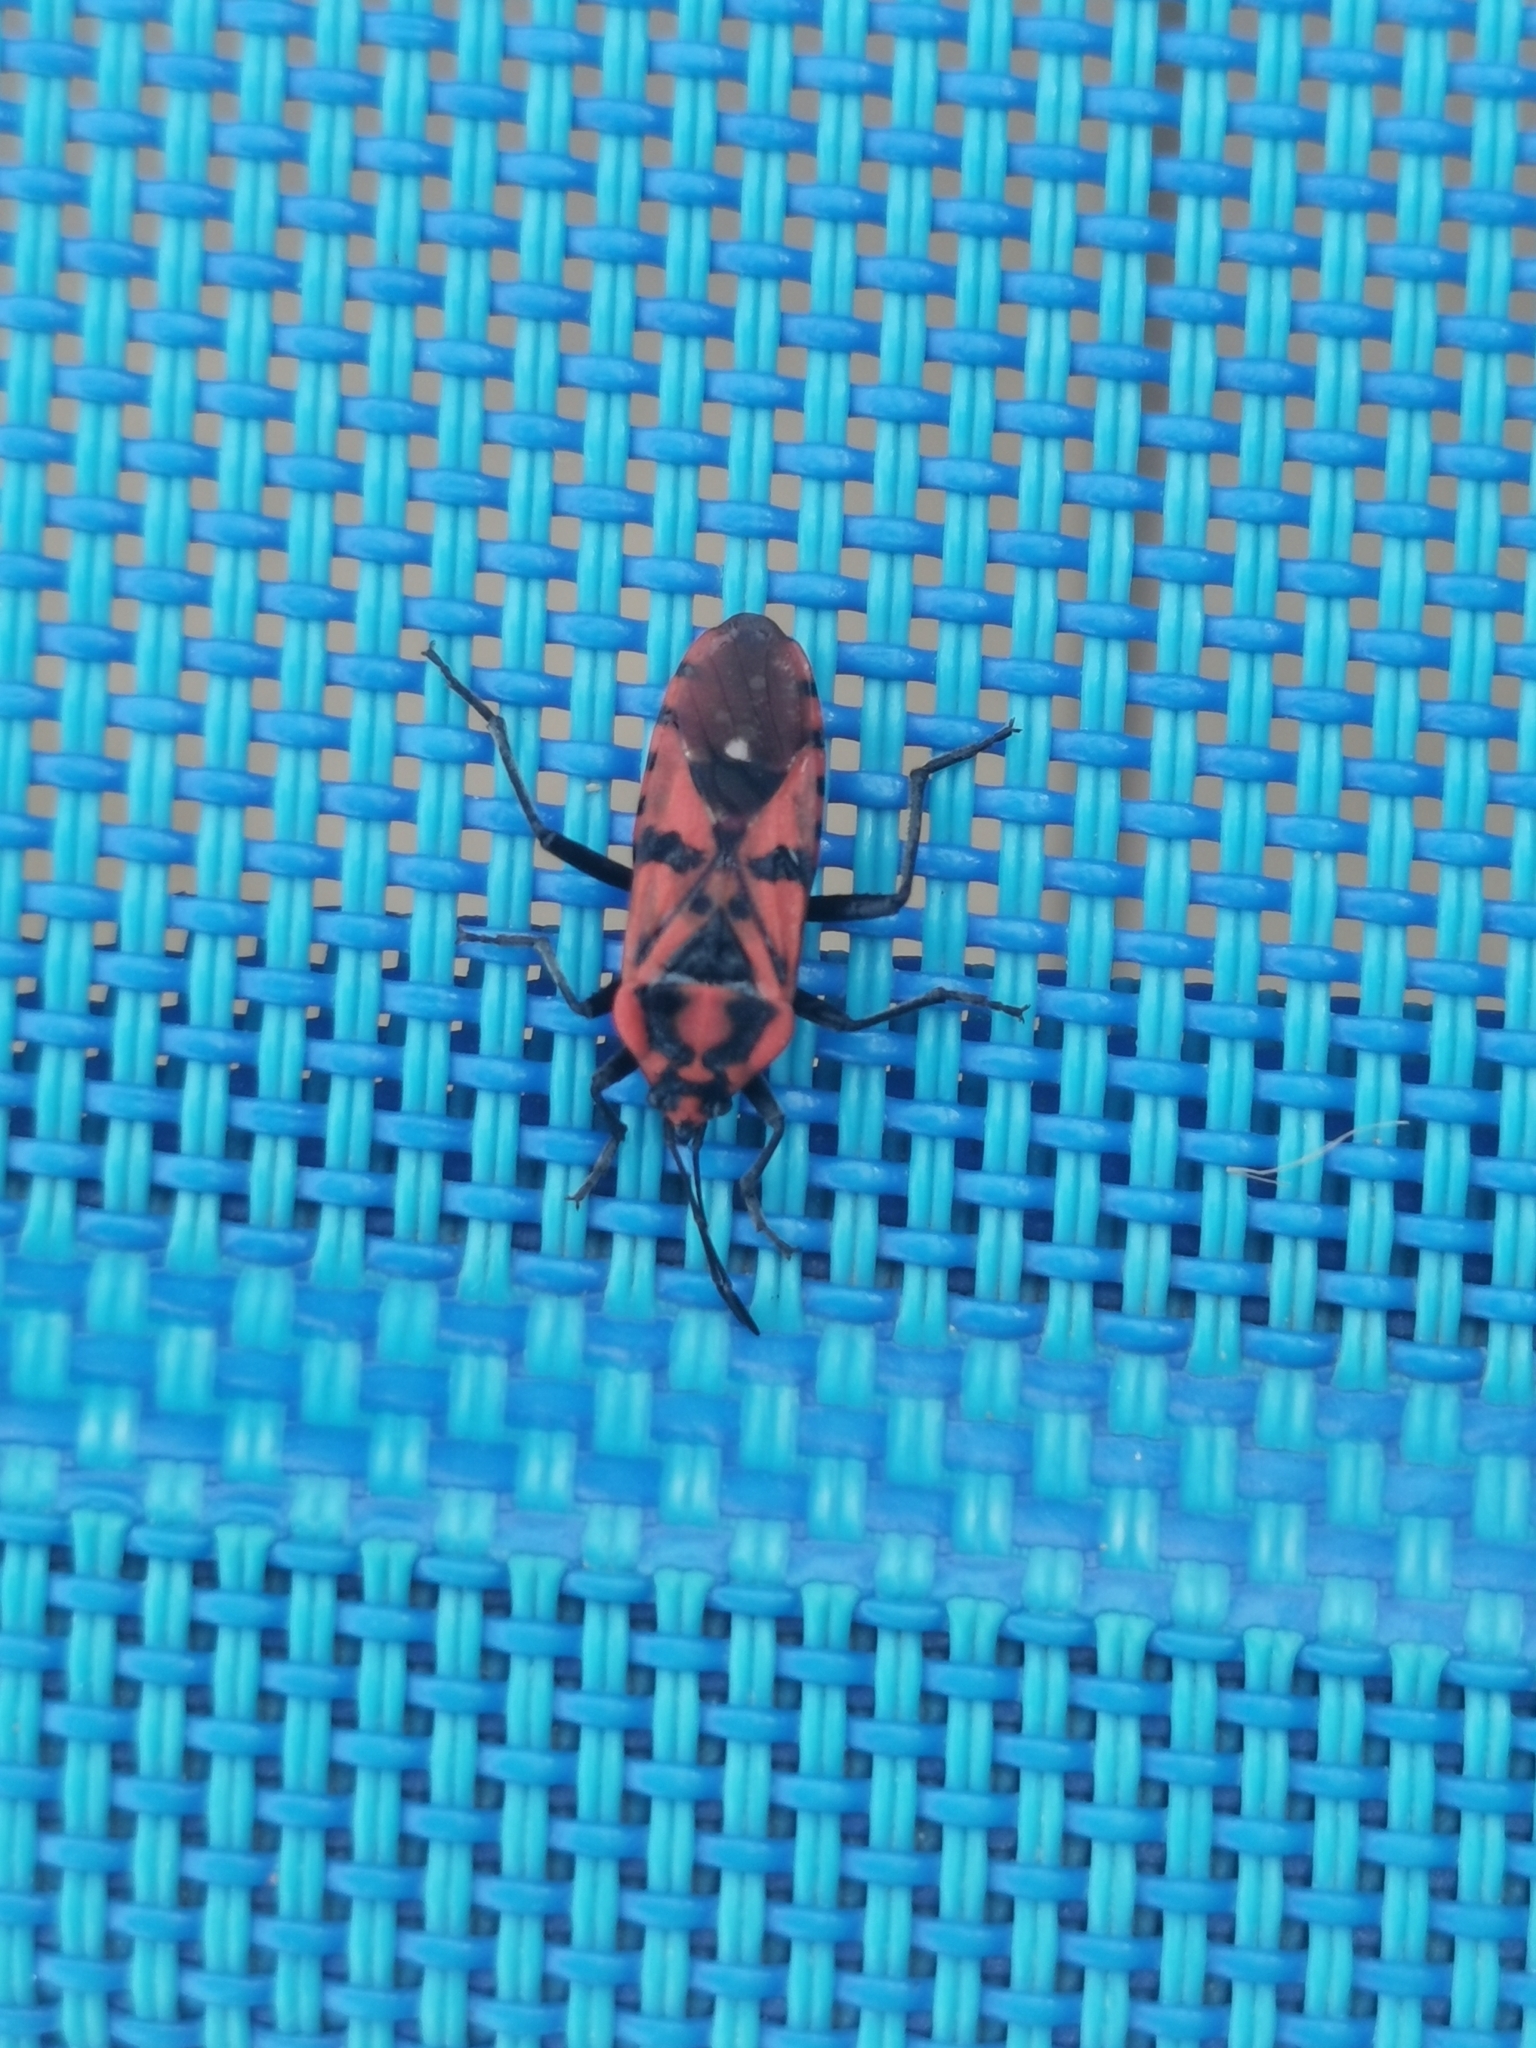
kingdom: Animalia
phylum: Arthropoda
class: Insecta
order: Hemiptera
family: Lygaeidae
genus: Spilostethus
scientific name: Spilostethus pandurus
